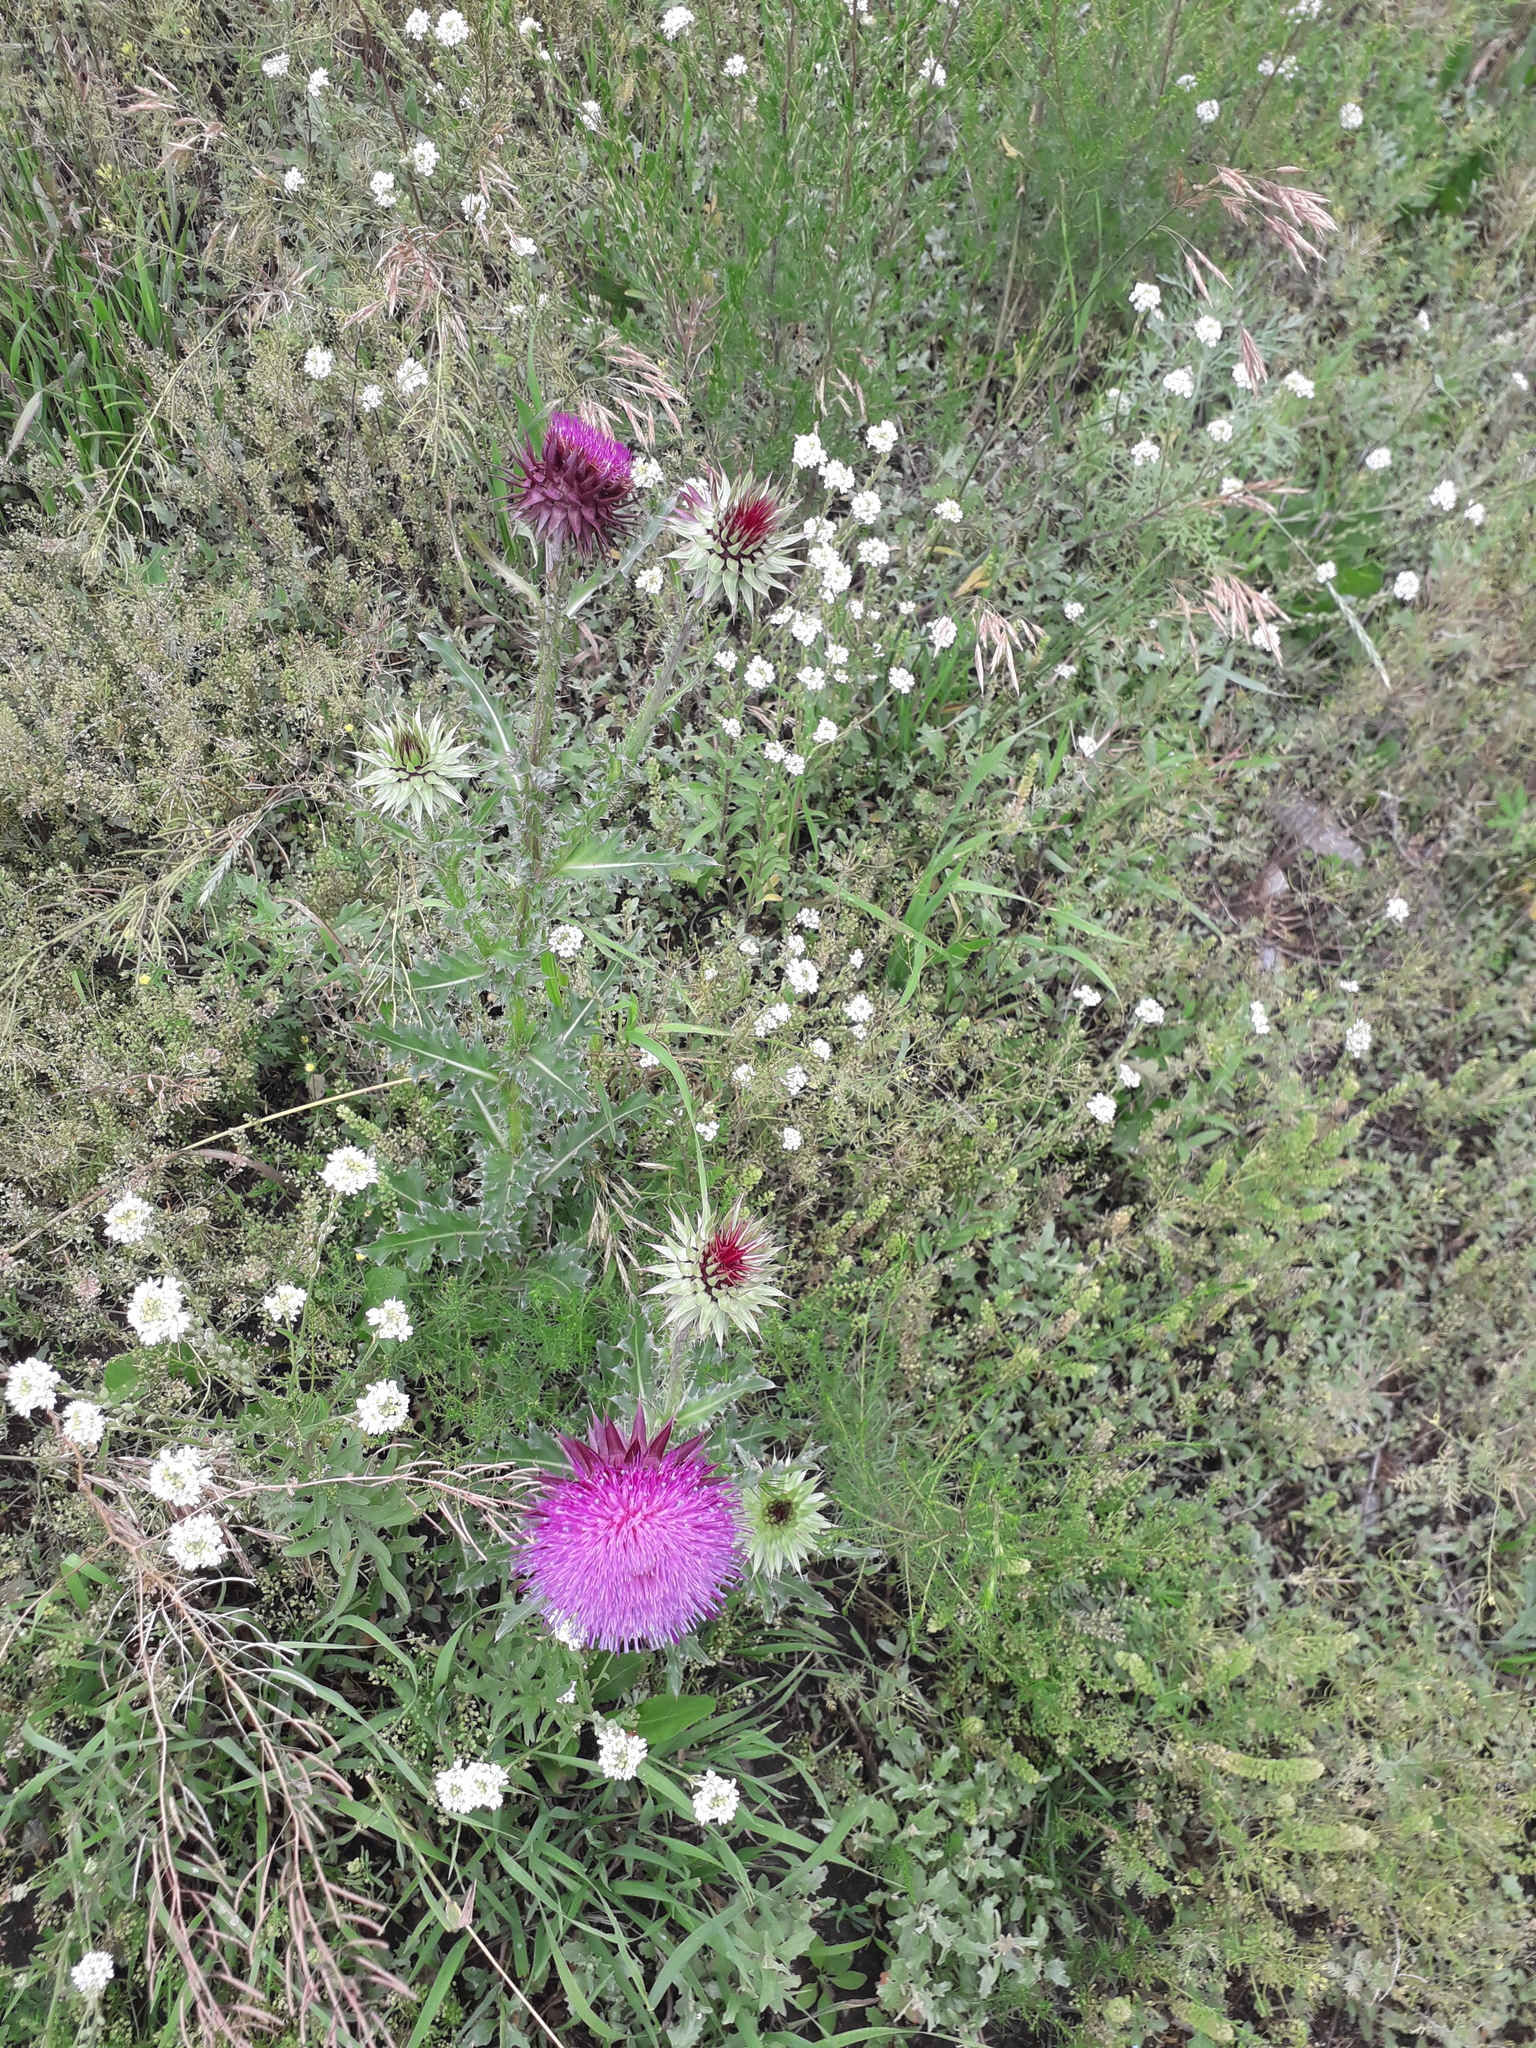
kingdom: Plantae
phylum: Tracheophyta
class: Magnoliopsida
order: Asterales
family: Asteraceae
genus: Carduus
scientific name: Carduus nutans
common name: Musk thistle
